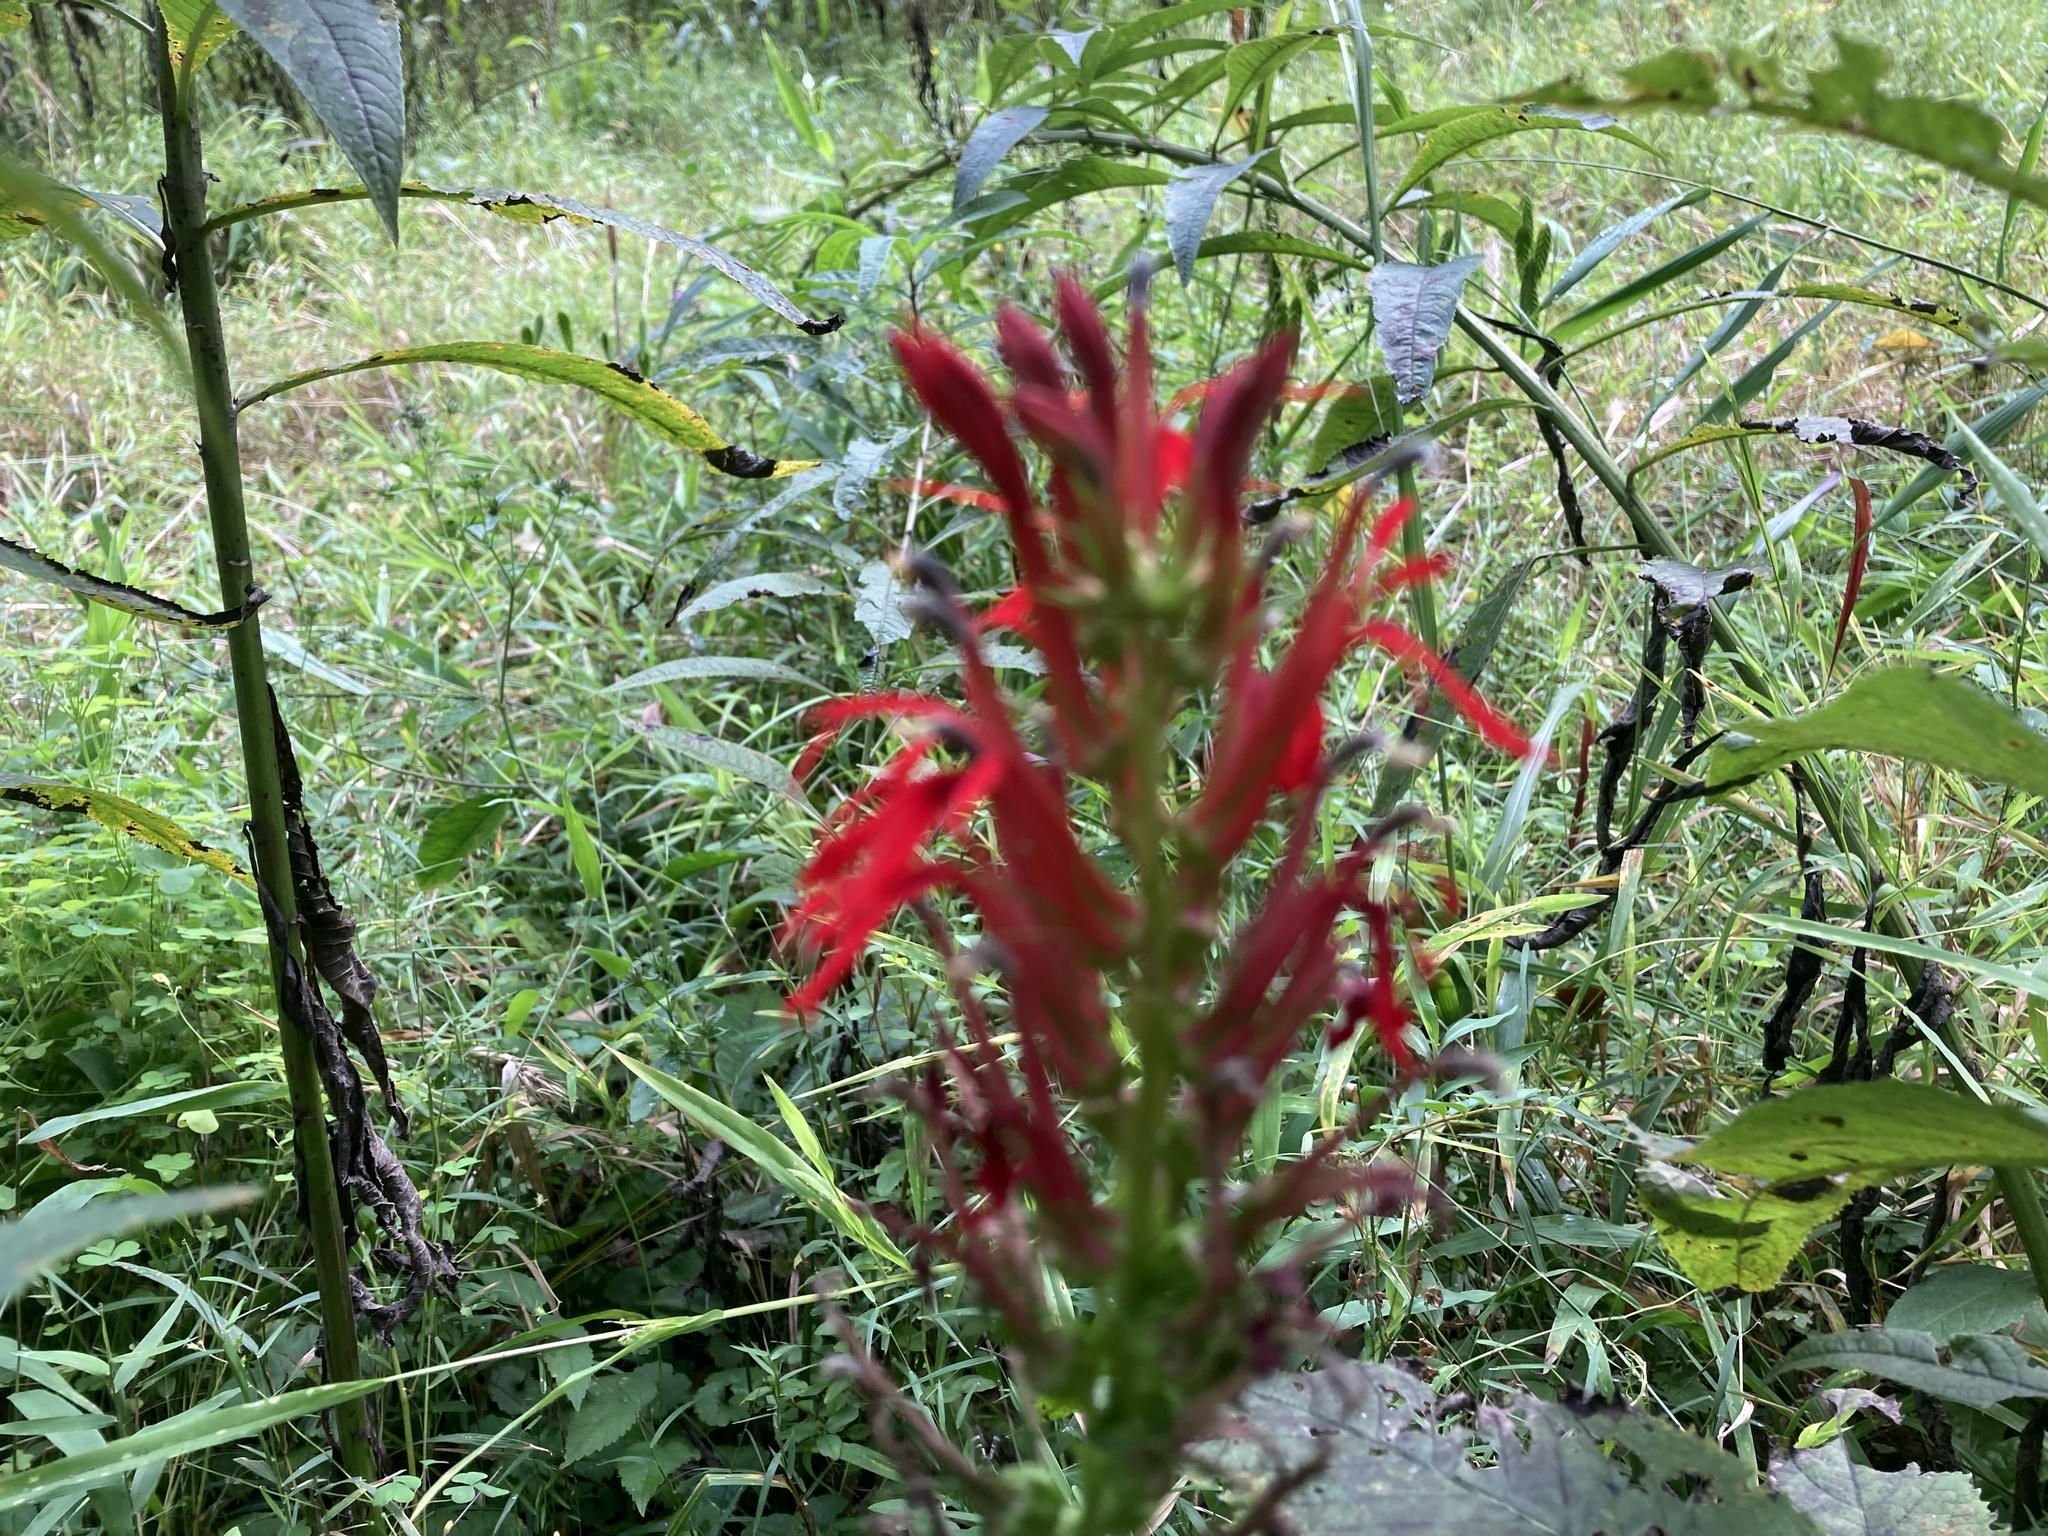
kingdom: Plantae
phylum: Tracheophyta
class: Magnoliopsida
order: Asterales
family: Campanulaceae
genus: Lobelia
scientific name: Lobelia cardinalis
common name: Cardinal flower
